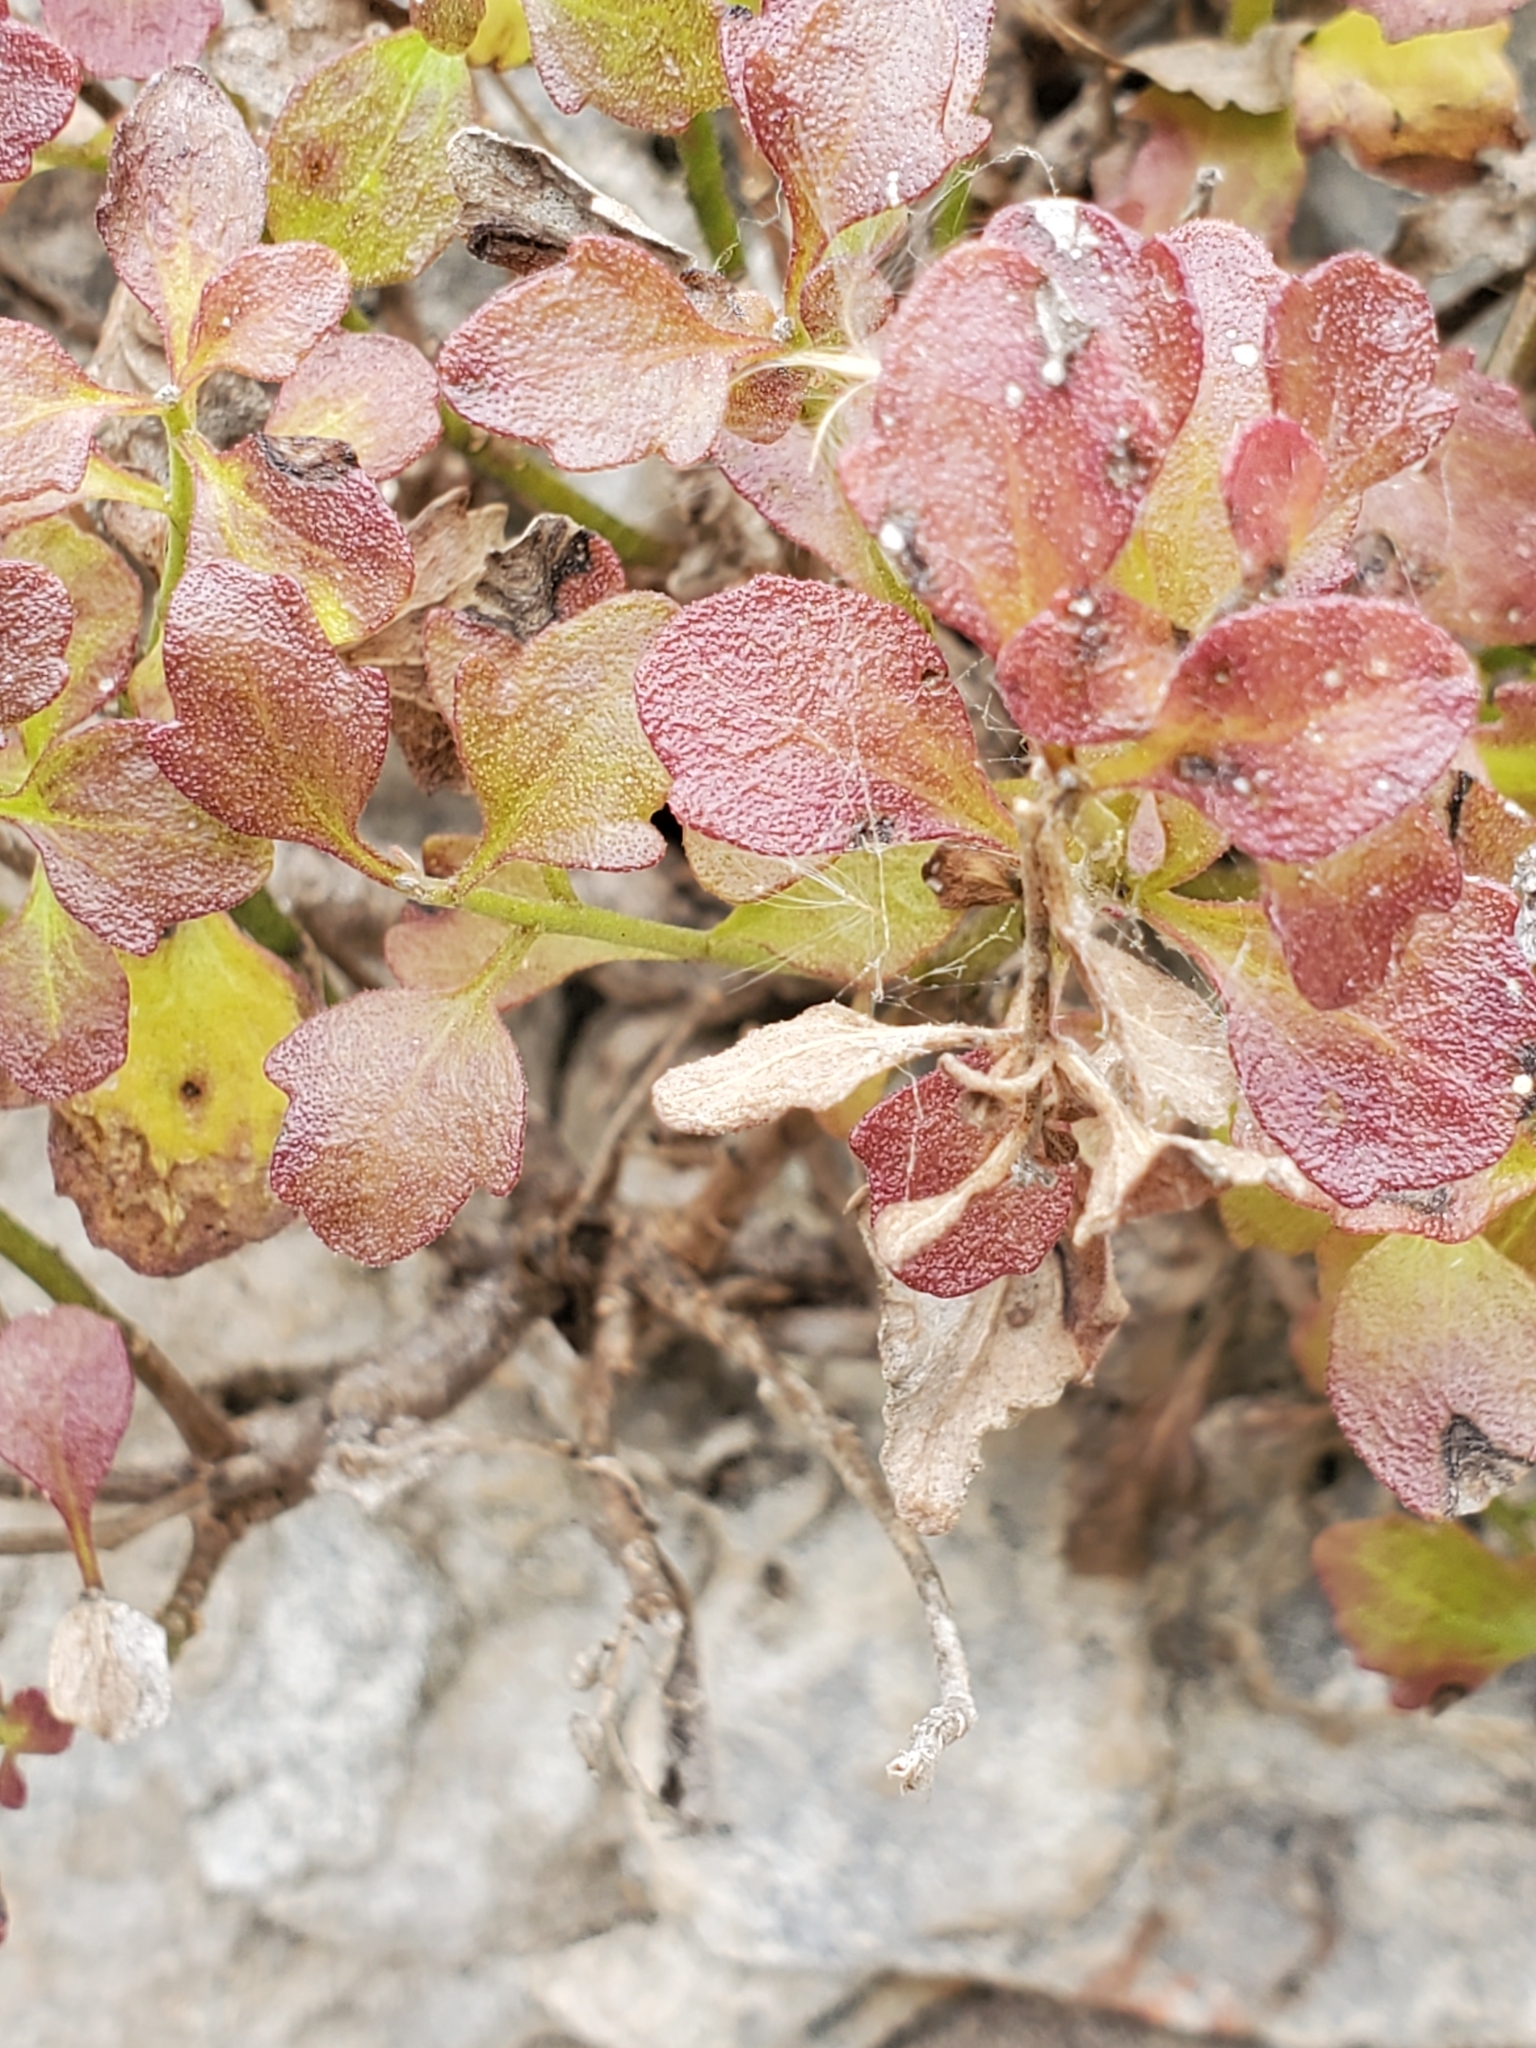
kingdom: Plantae
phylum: Tracheophyta
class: Magnoliopsida
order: Sapindales
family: Anacardiaceae
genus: Rhus
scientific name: Rhus aromatica
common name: Aromatic sumac
